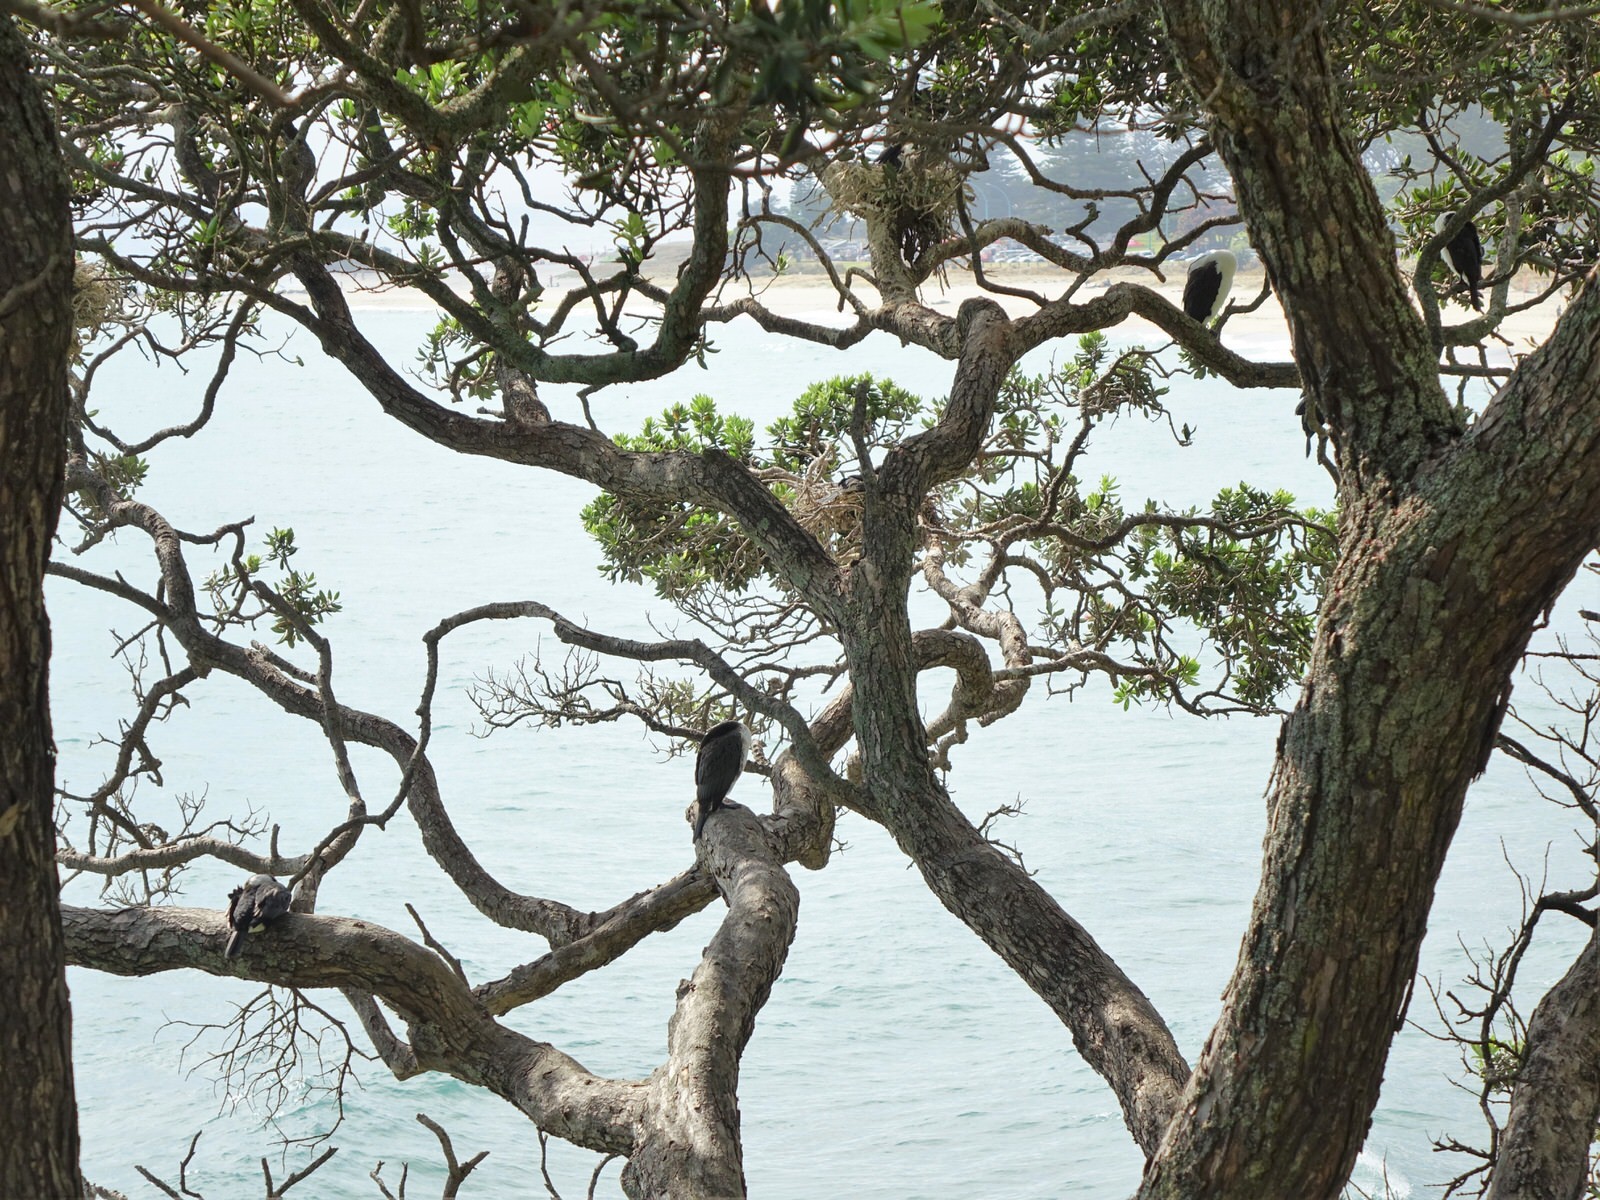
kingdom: Animalia
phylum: Chordata
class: Aves
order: Suliformes
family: Phalacrocoracidae
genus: Phalacrocorax
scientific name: Phalacrocorax varius
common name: Pied cormorant
